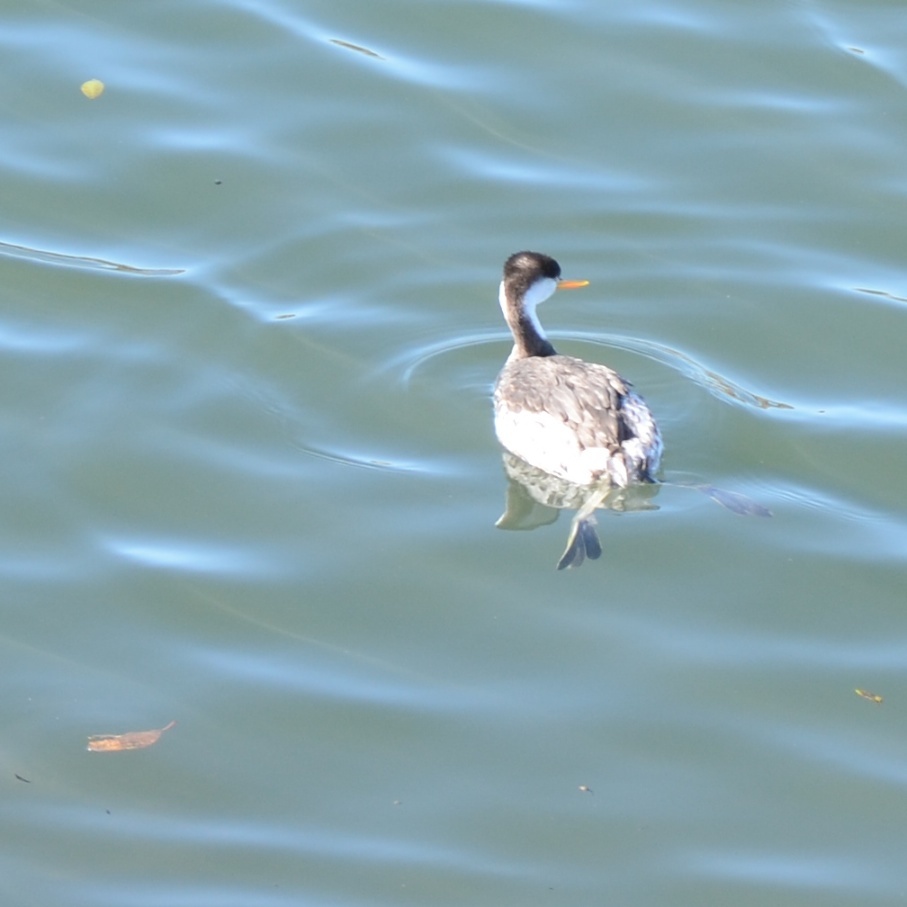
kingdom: Animalia
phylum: Chordata
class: Aves
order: Podicipediformes
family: Podicipedidae
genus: Aechmophorus
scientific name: Aechmophorus occidentalis
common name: Western grebe
